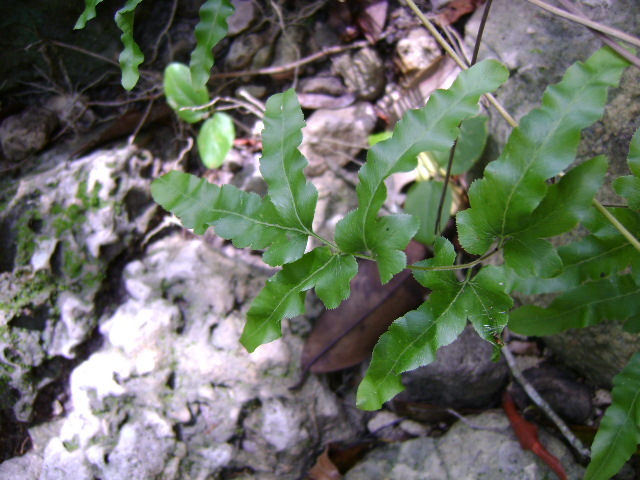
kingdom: Plantae
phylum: Tracheophyta
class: Polypodiopsida
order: Schizaeales
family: Lygodiaceae
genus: Lygodium
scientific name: Lygodium venustum
